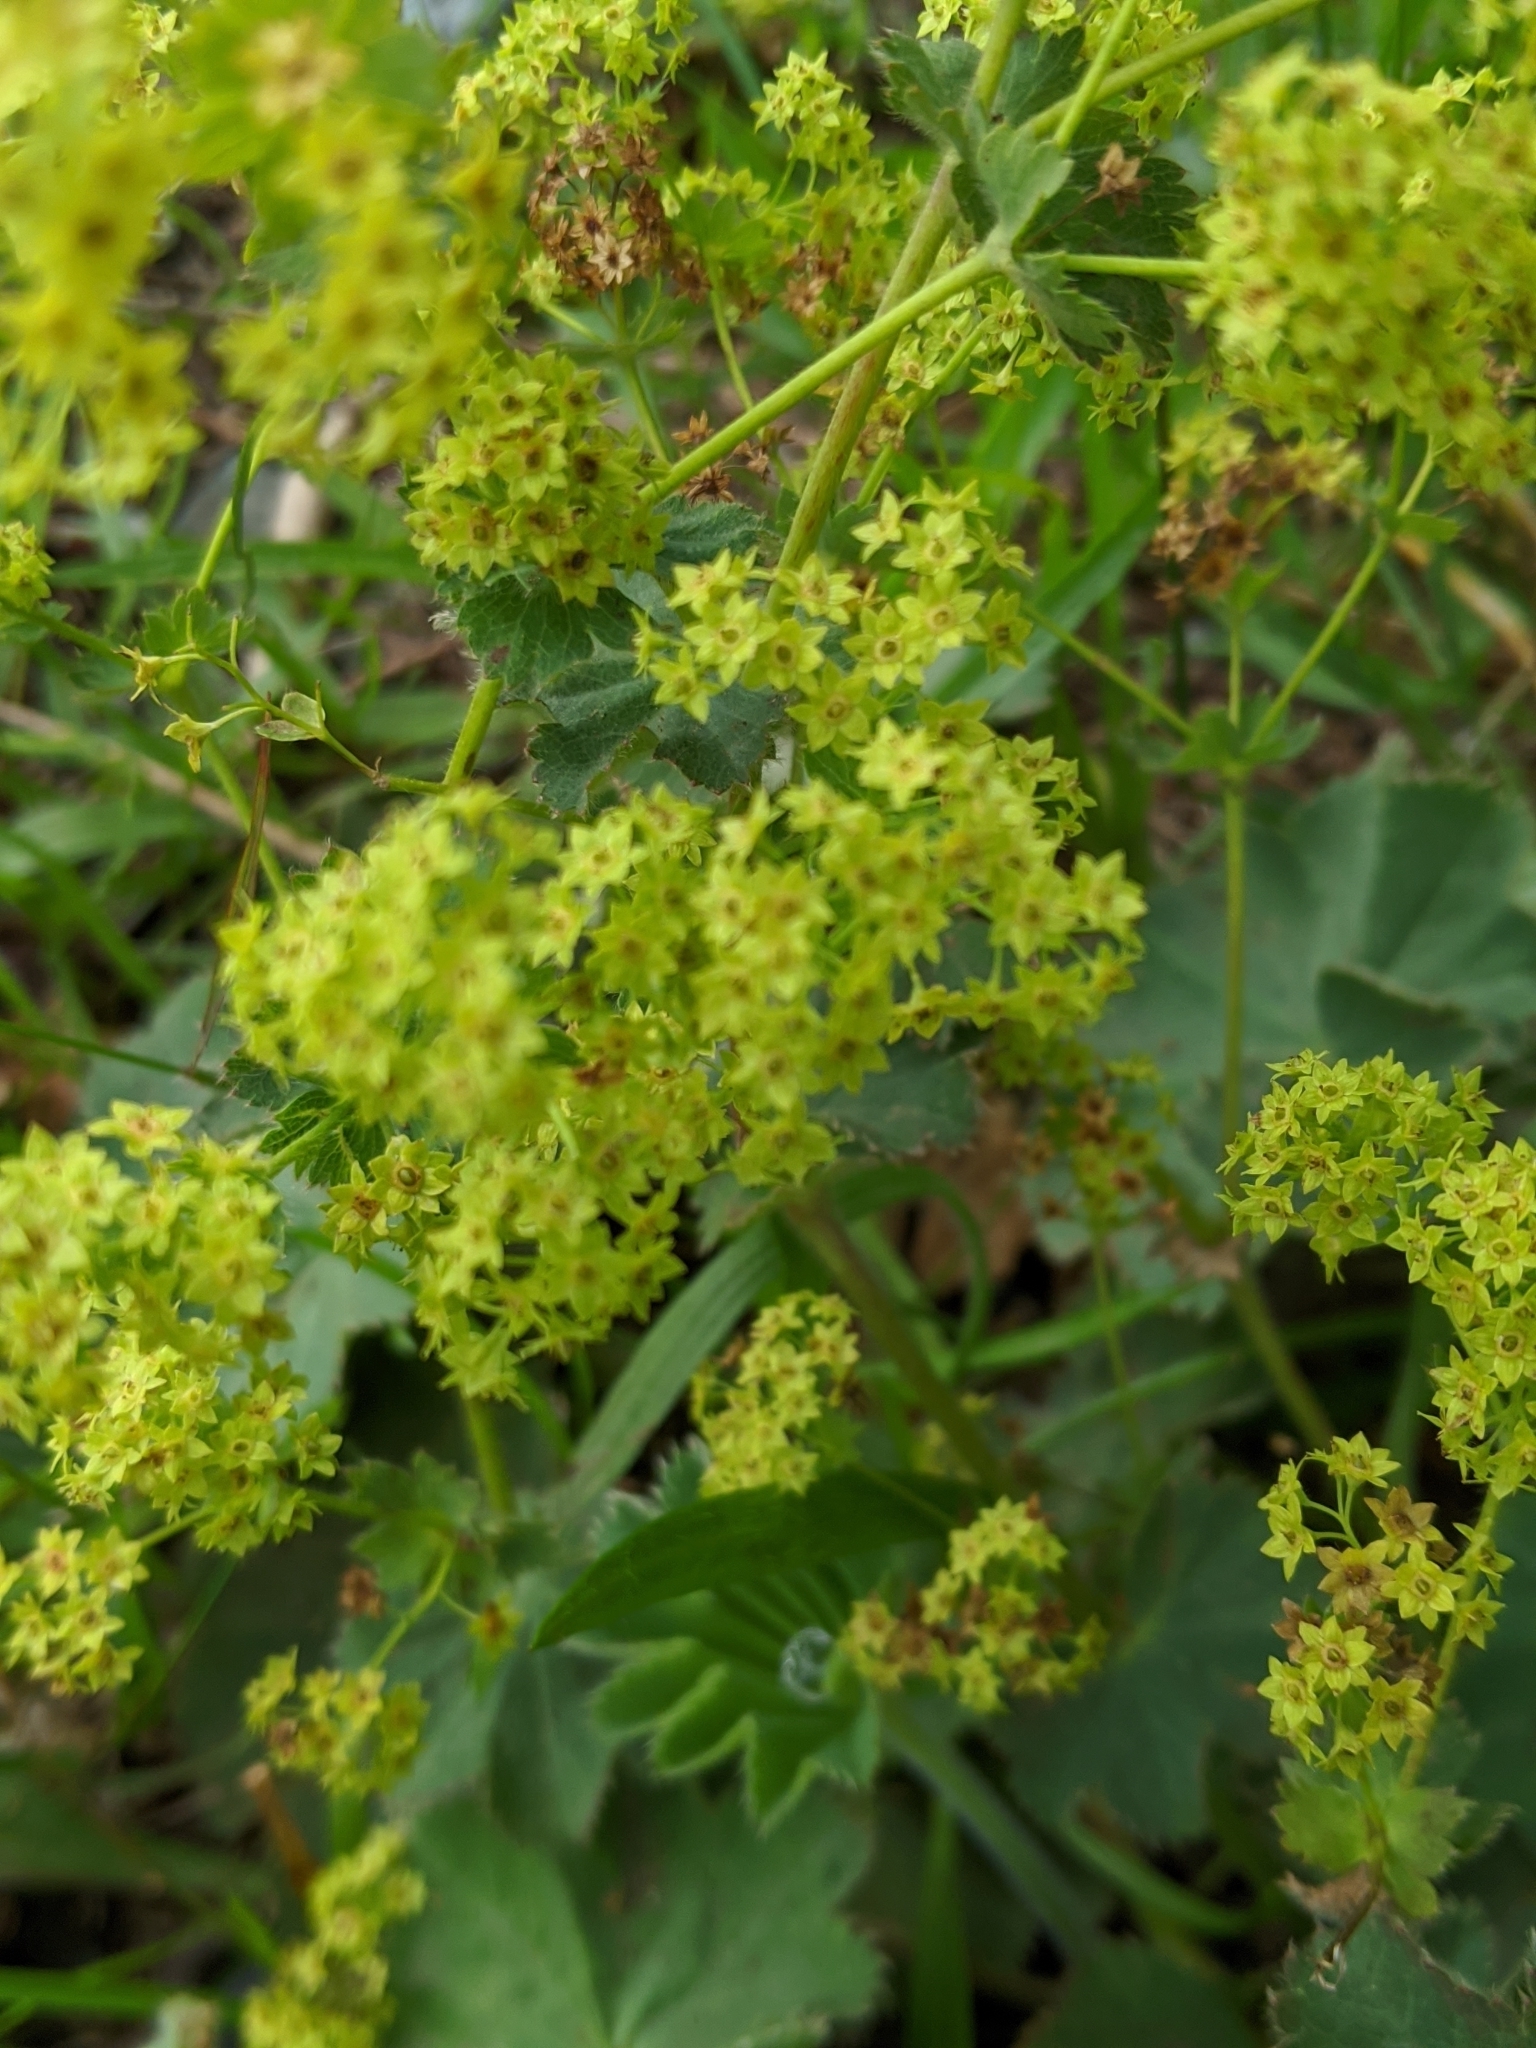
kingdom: Plantae
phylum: Tracheophyta
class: Magnoliopsida
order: Rosales
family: Rosaceae
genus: Alchemilla
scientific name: Alchemilla mollis
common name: Lady's-mantle
